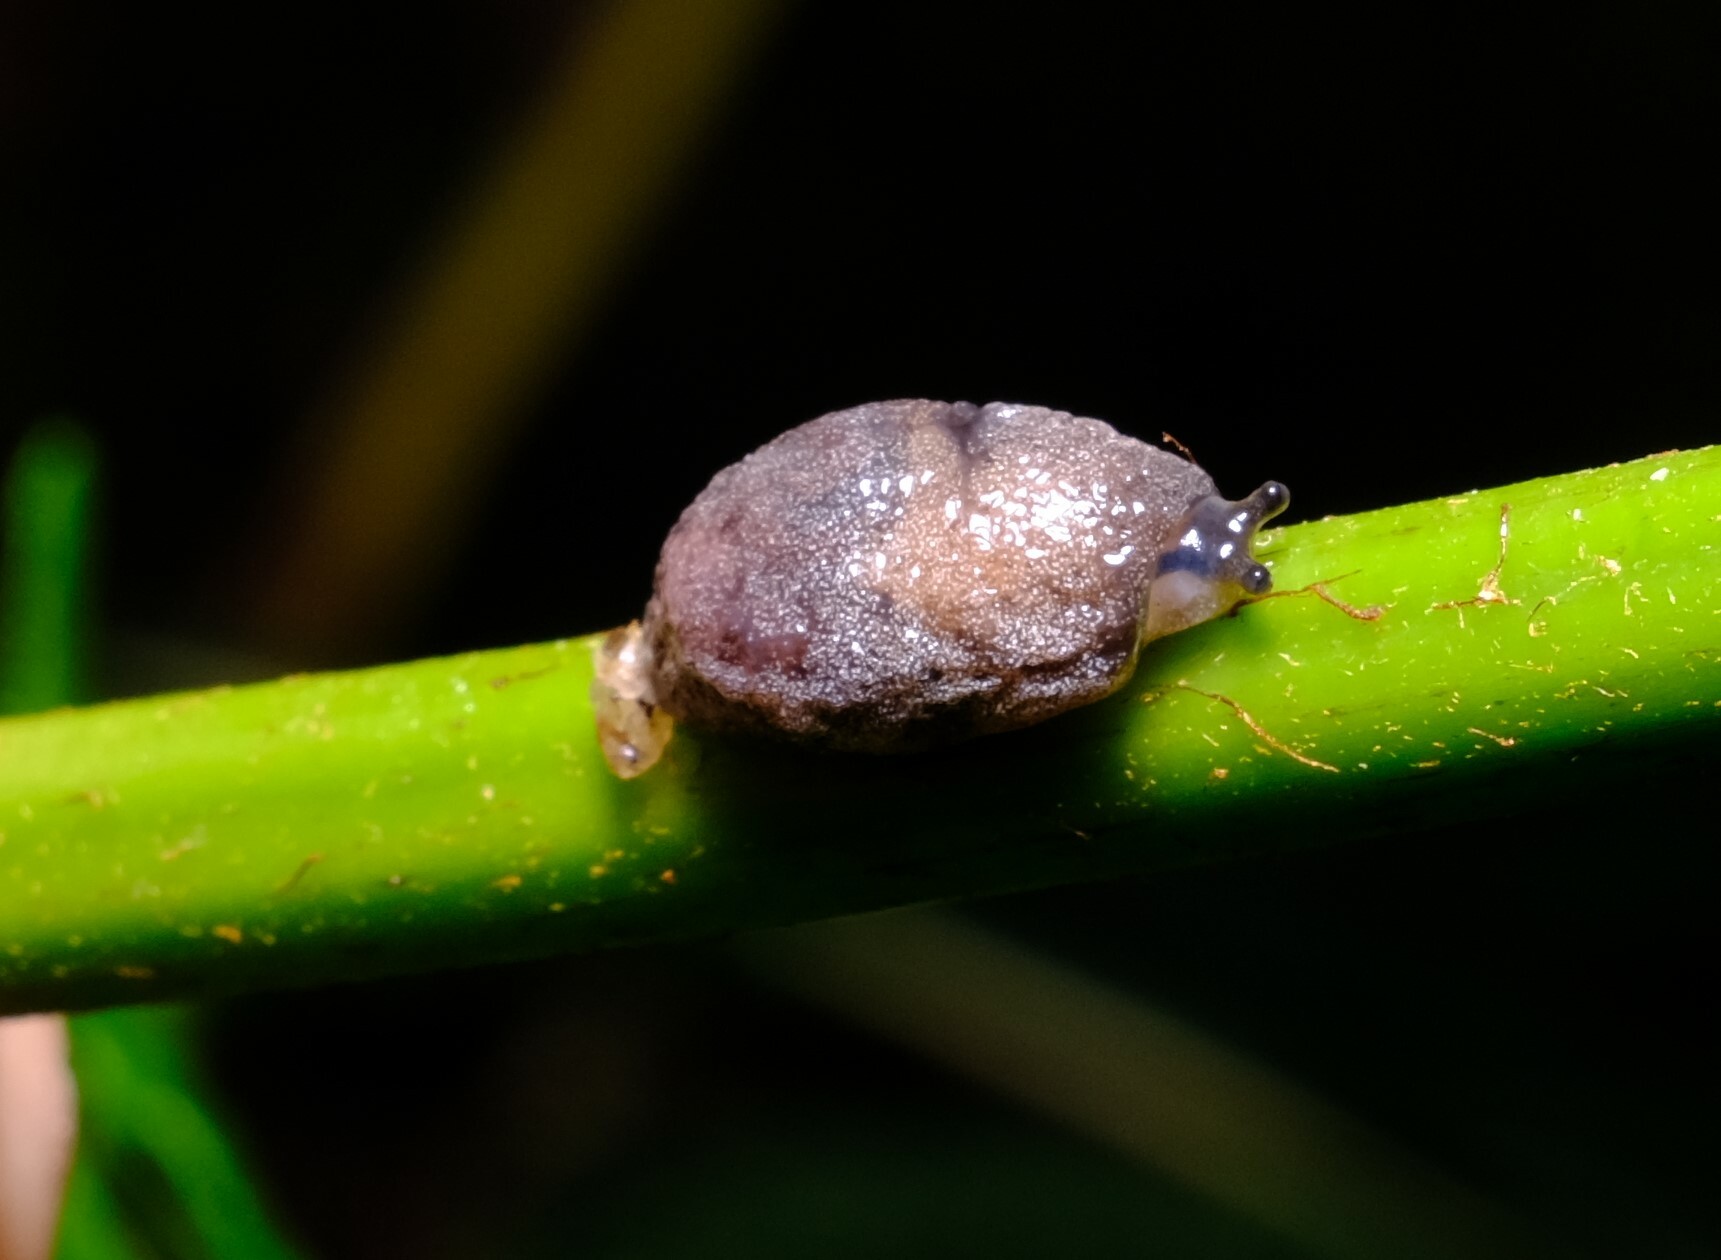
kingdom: Animalia
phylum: Mollusca
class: Gastropoda
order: Stylommatophora
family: Cystopeltidae
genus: Cystopelta
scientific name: Cystopelta
